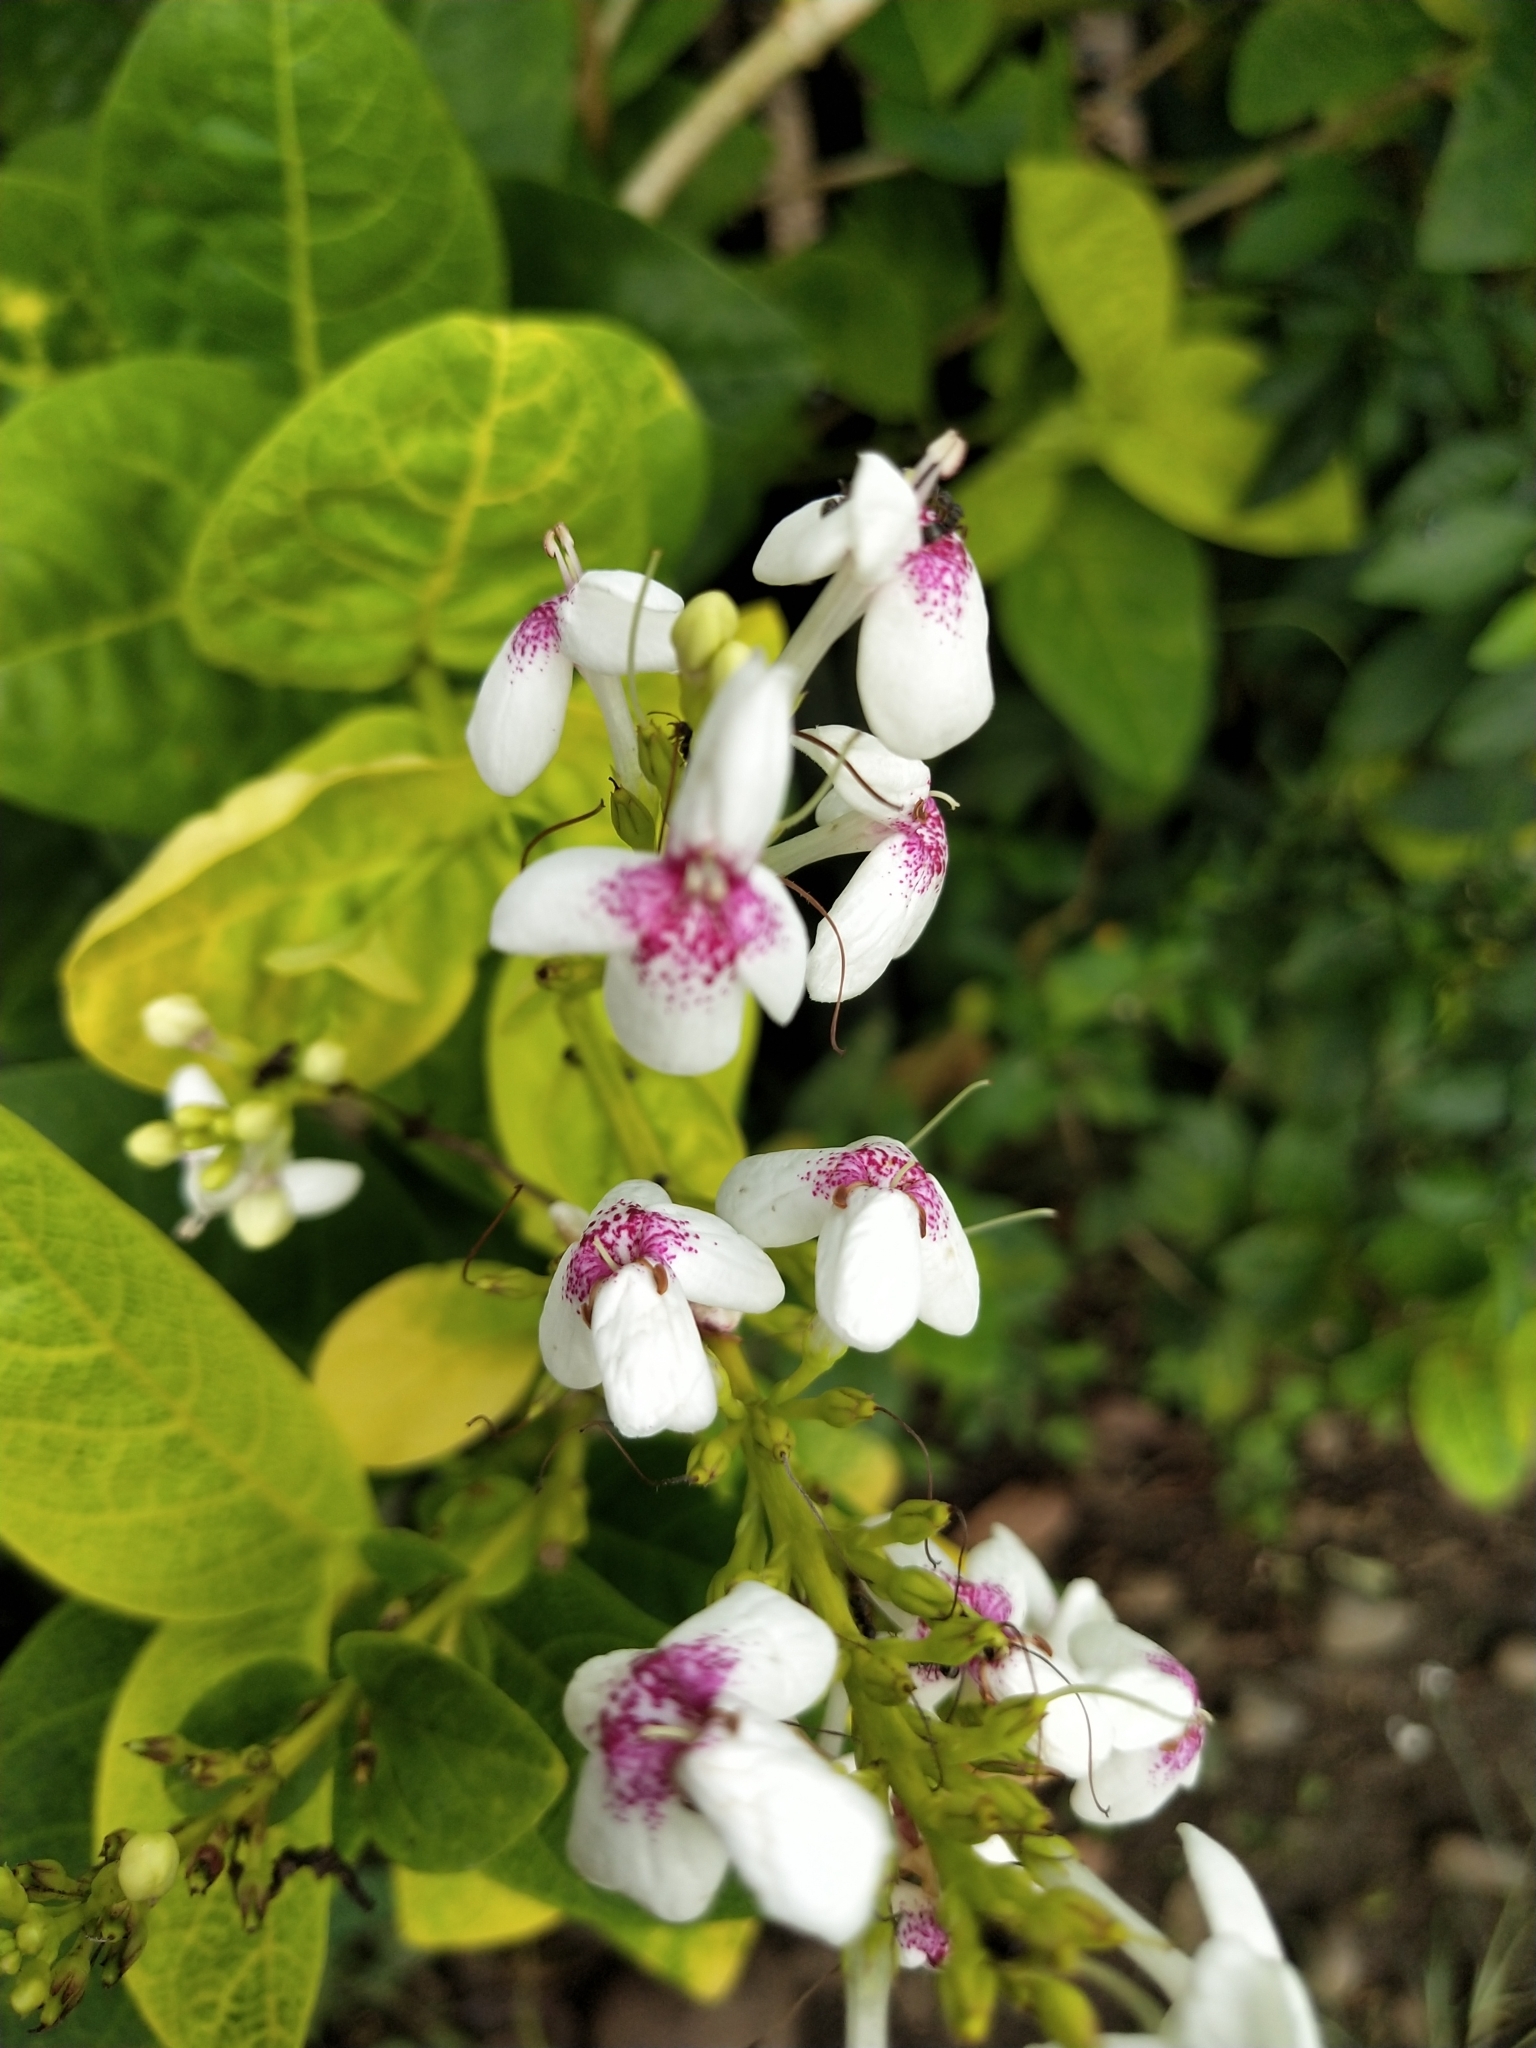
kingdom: Plantae
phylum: Tracheophyta
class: Magnoliopsida
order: Lamiales
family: Acanthaceae
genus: Pseuderanthemum
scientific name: Pseuderanthemum maculatum
